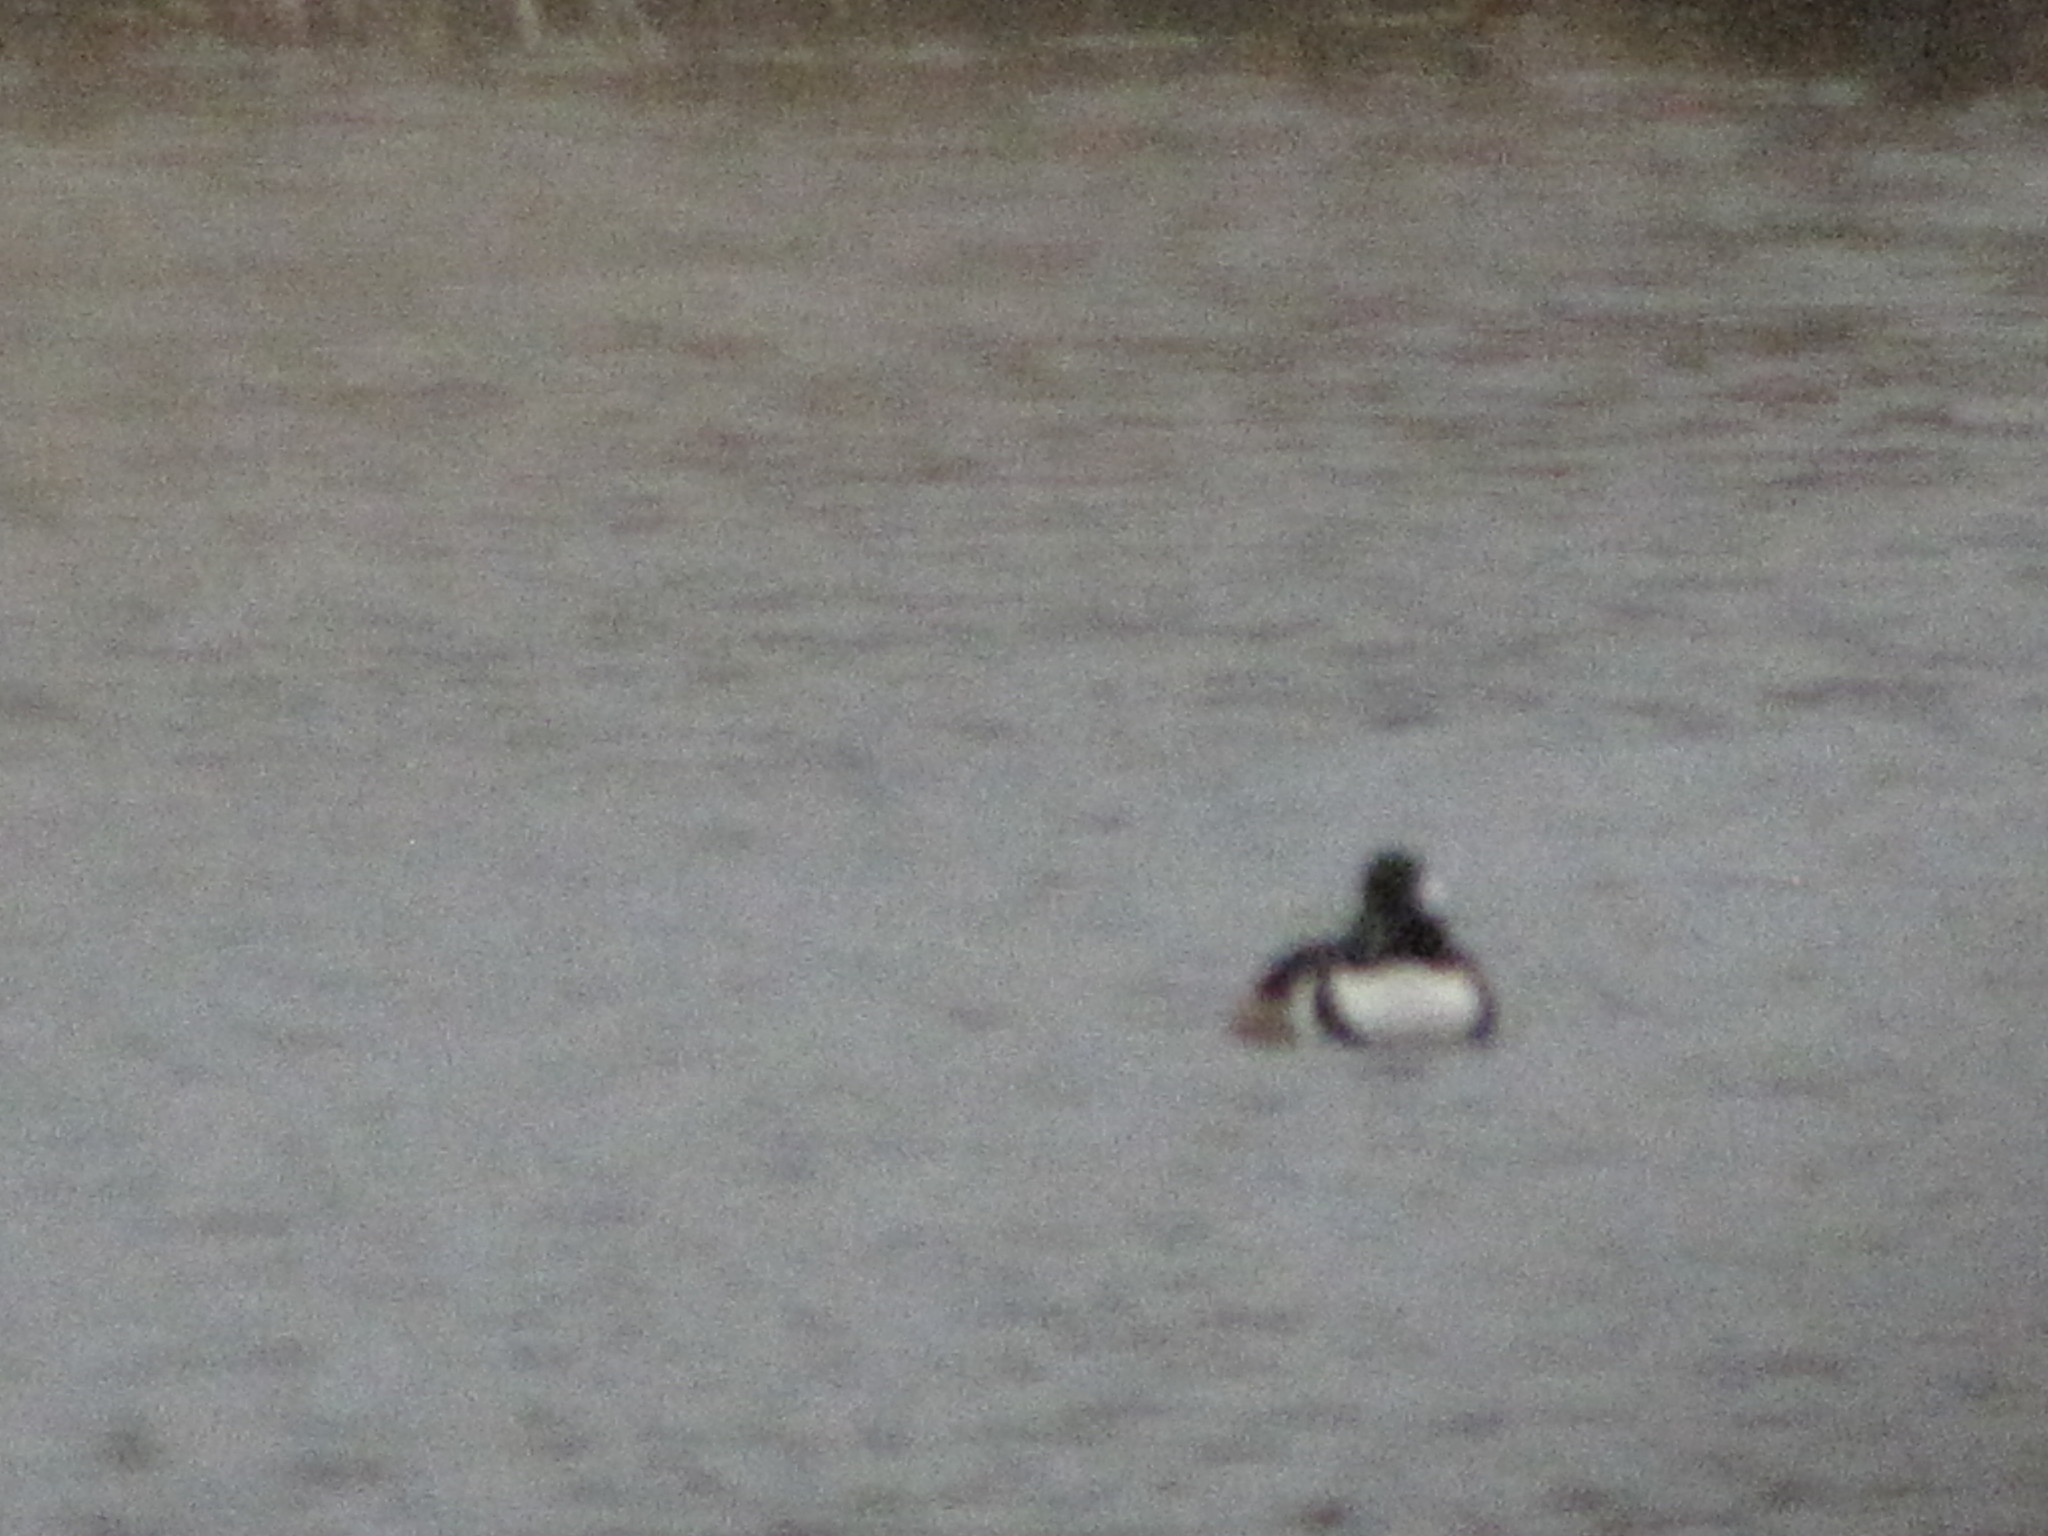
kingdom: Animalia
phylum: Chordata
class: Aves
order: Anseriformes
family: Anatidae
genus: Lophodytes
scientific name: Lophodytes cucullatus
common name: Hooded merganser
